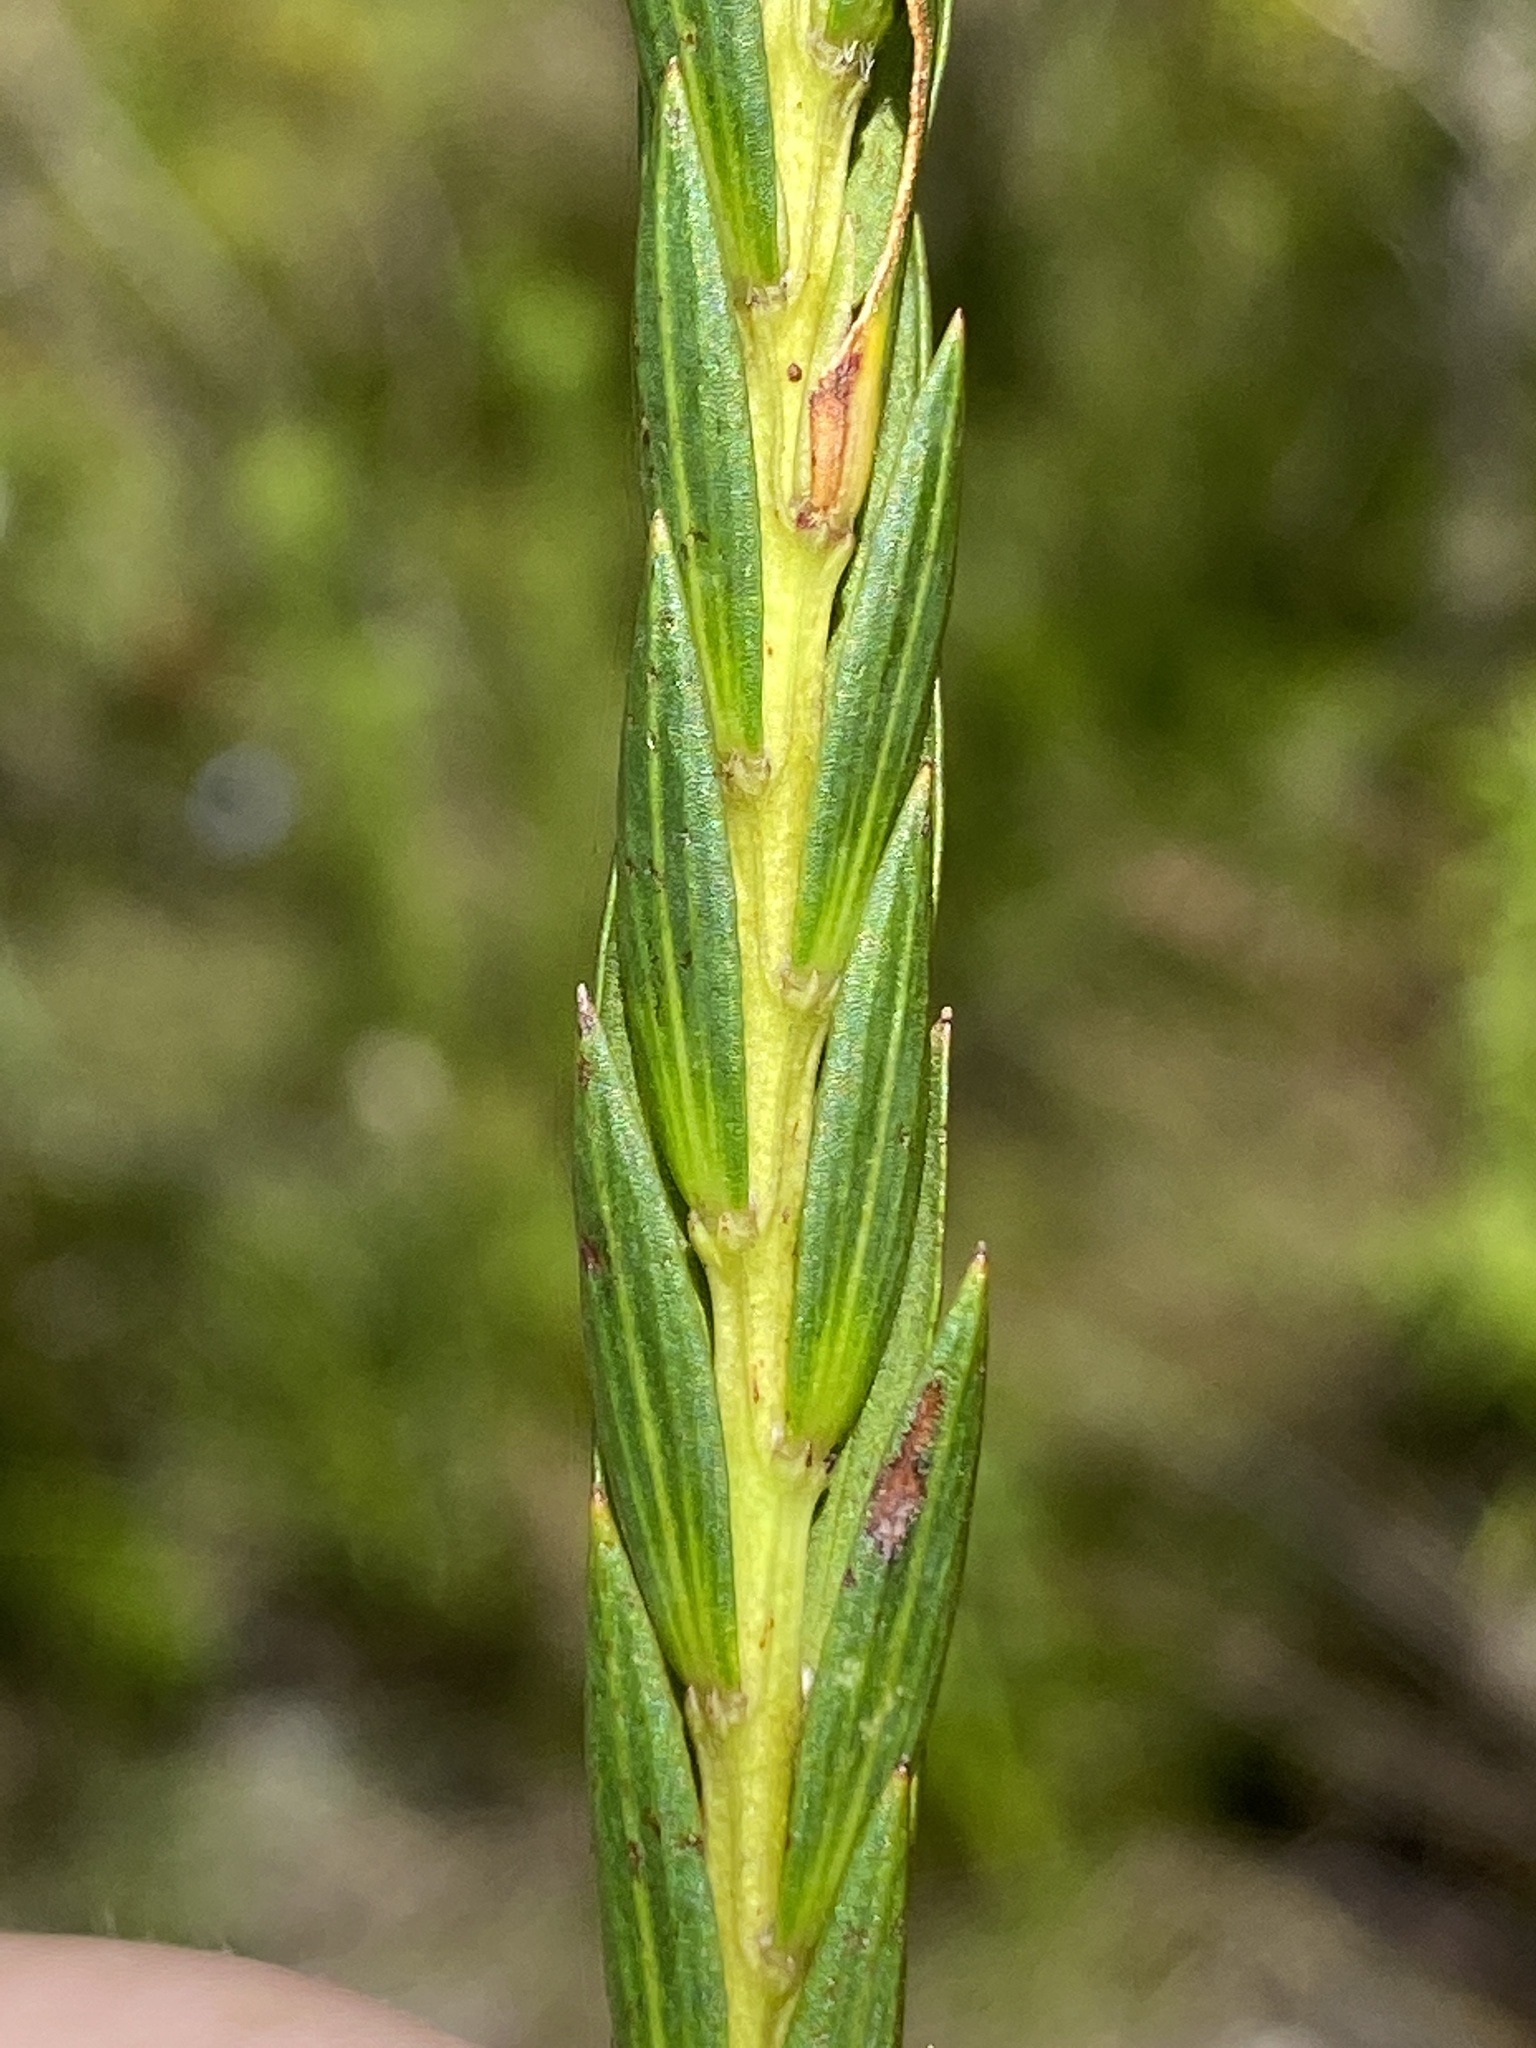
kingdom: Plantae
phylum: Tracheophyta
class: Magnoliopsida
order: Malvales
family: Thymelaeaceae
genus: Struthiola
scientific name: Struthiola myrsinites
